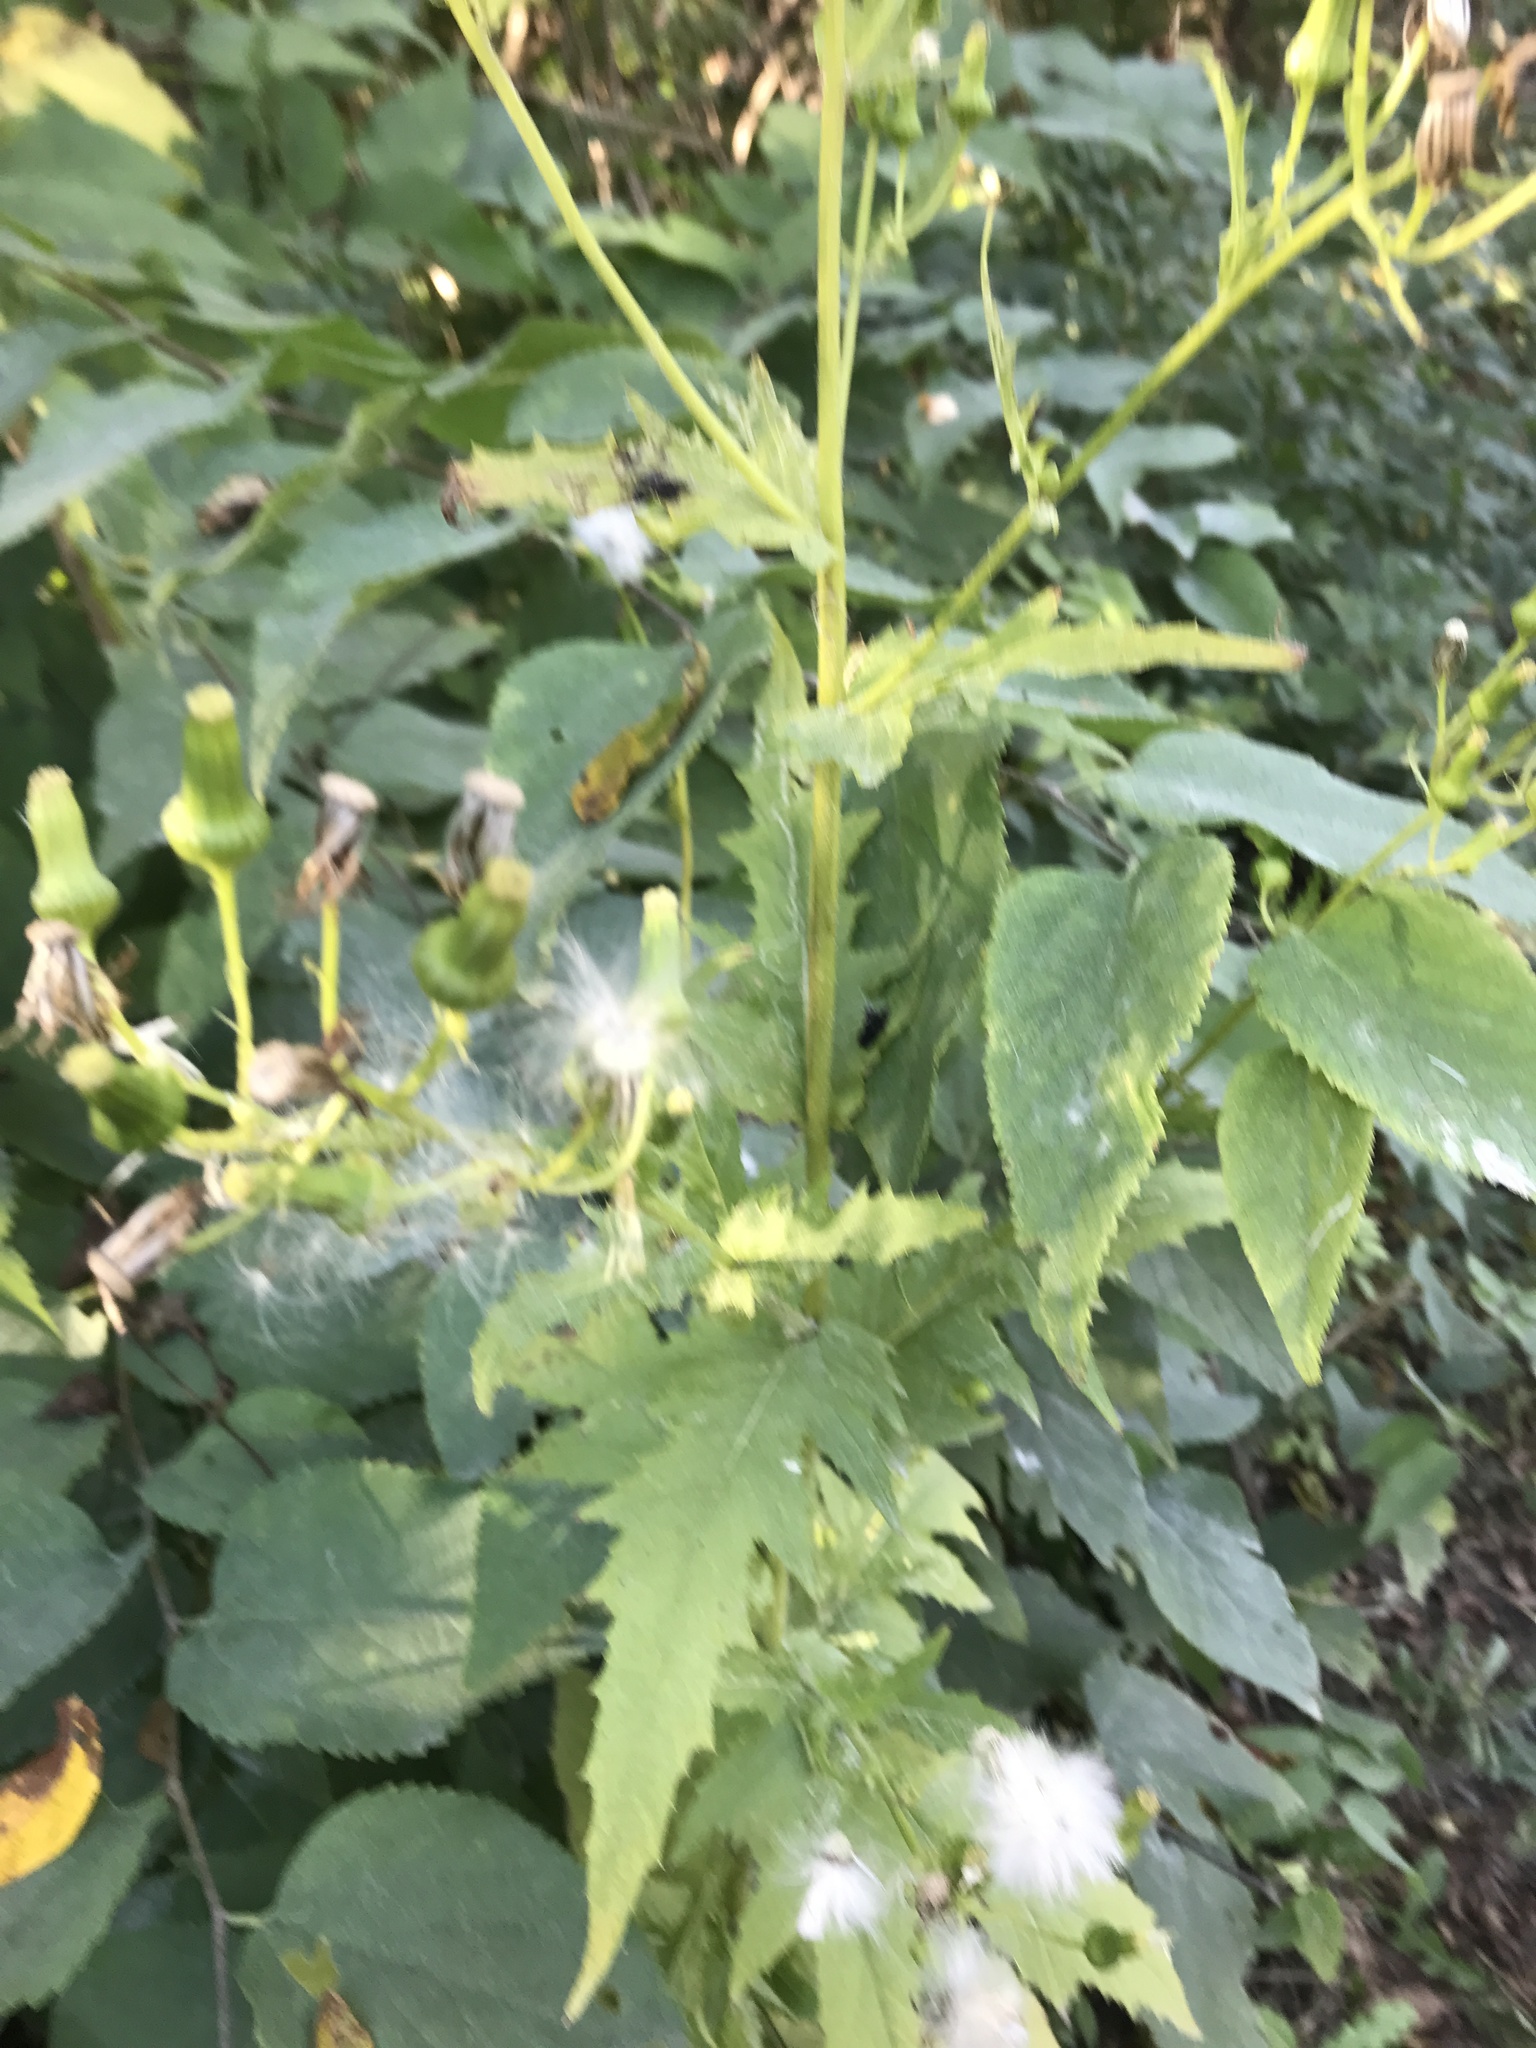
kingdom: Plantae
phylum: Tracheophyta
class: Magnoliopsida
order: Asterales
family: Asteraceae
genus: Erechtites
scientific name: Erechtites hieraciifolius
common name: American burnweed
